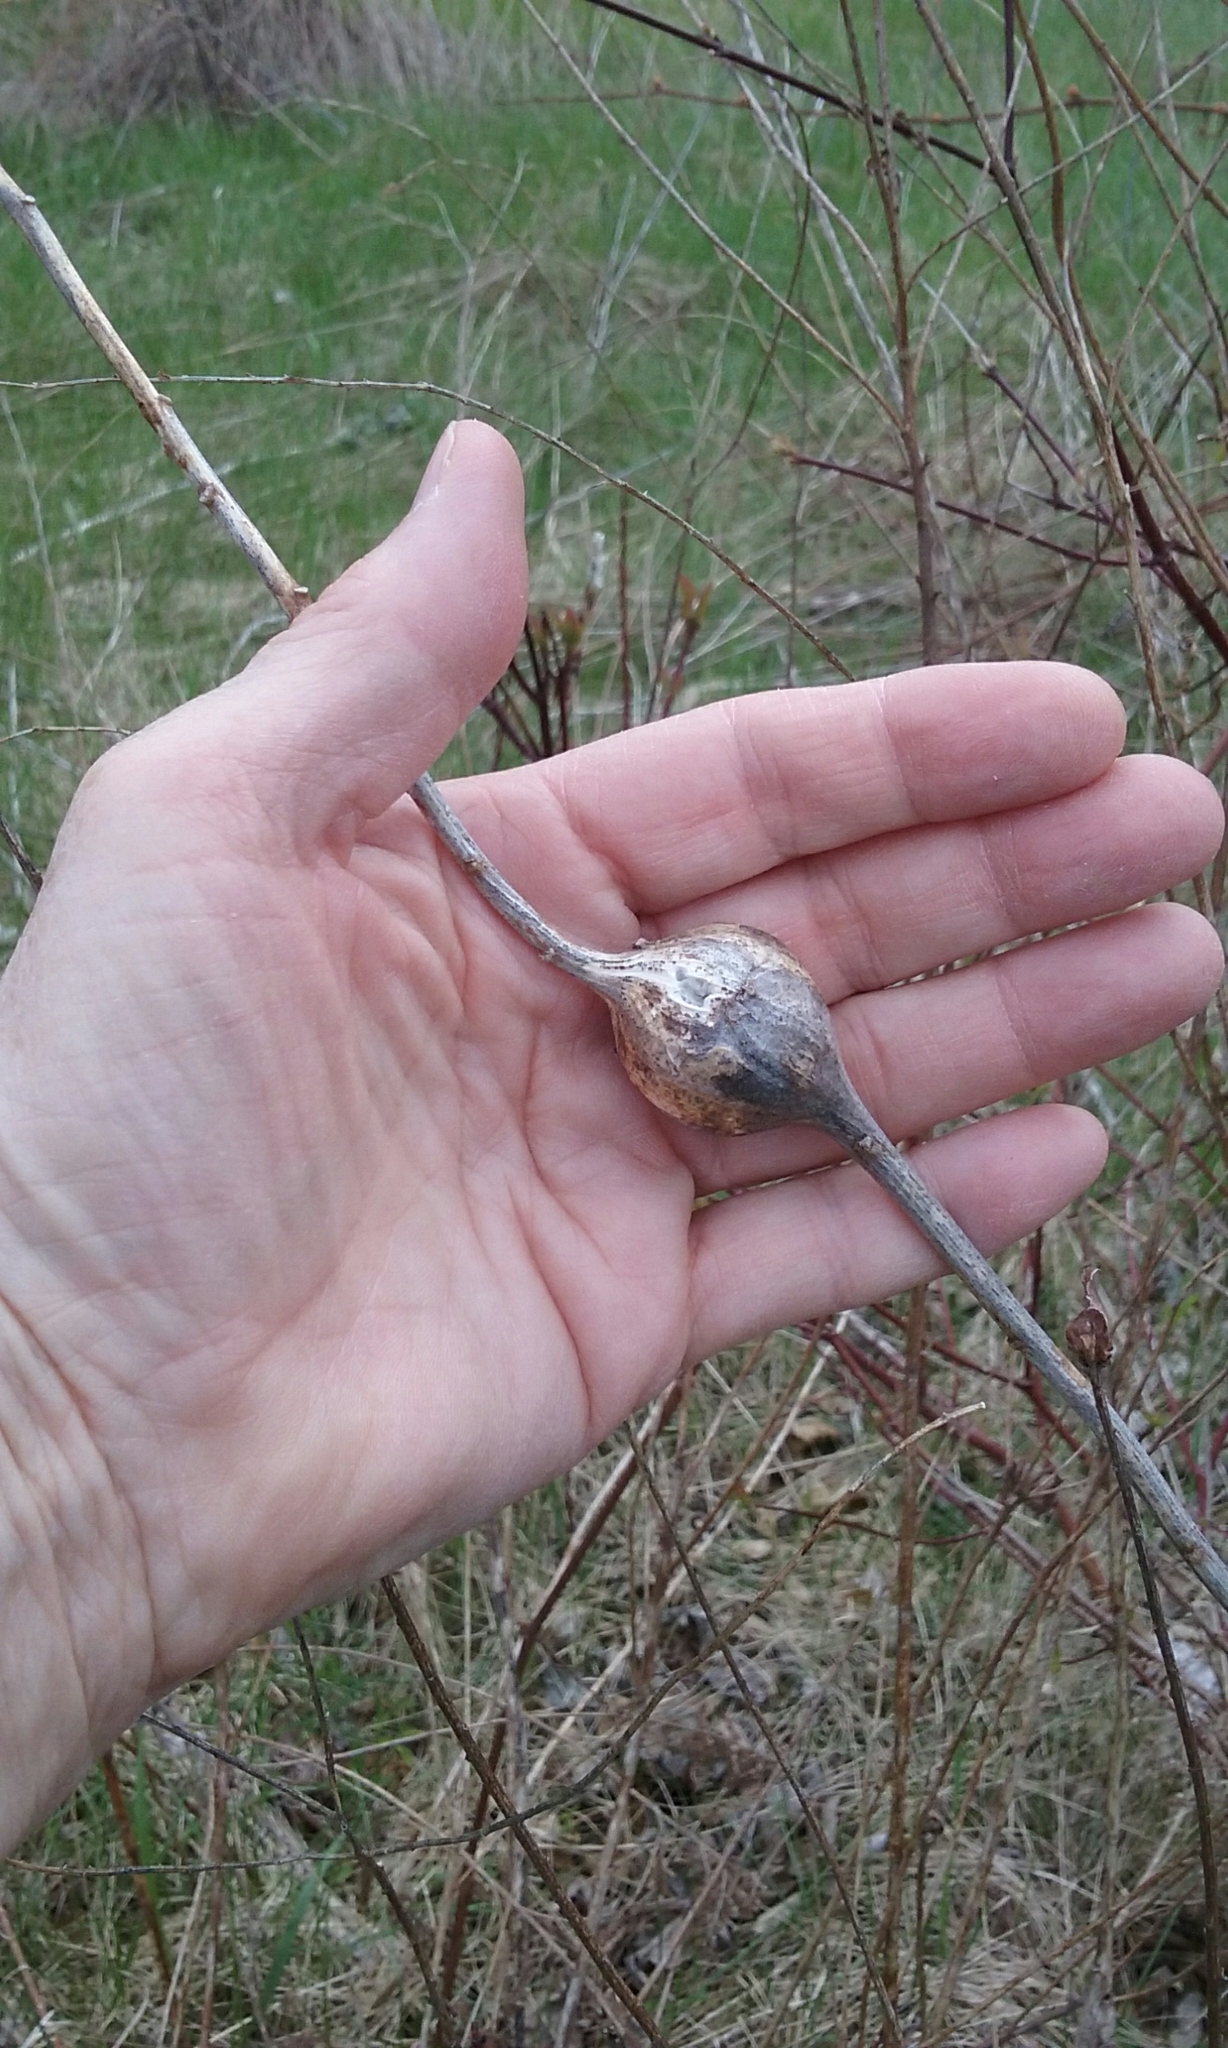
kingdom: Animalia
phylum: Arthropoda
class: Insecta
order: Diptera
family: Tephritidae
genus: Eurosta
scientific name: Eurosta solidaginis
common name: Goldenrod gall fly
